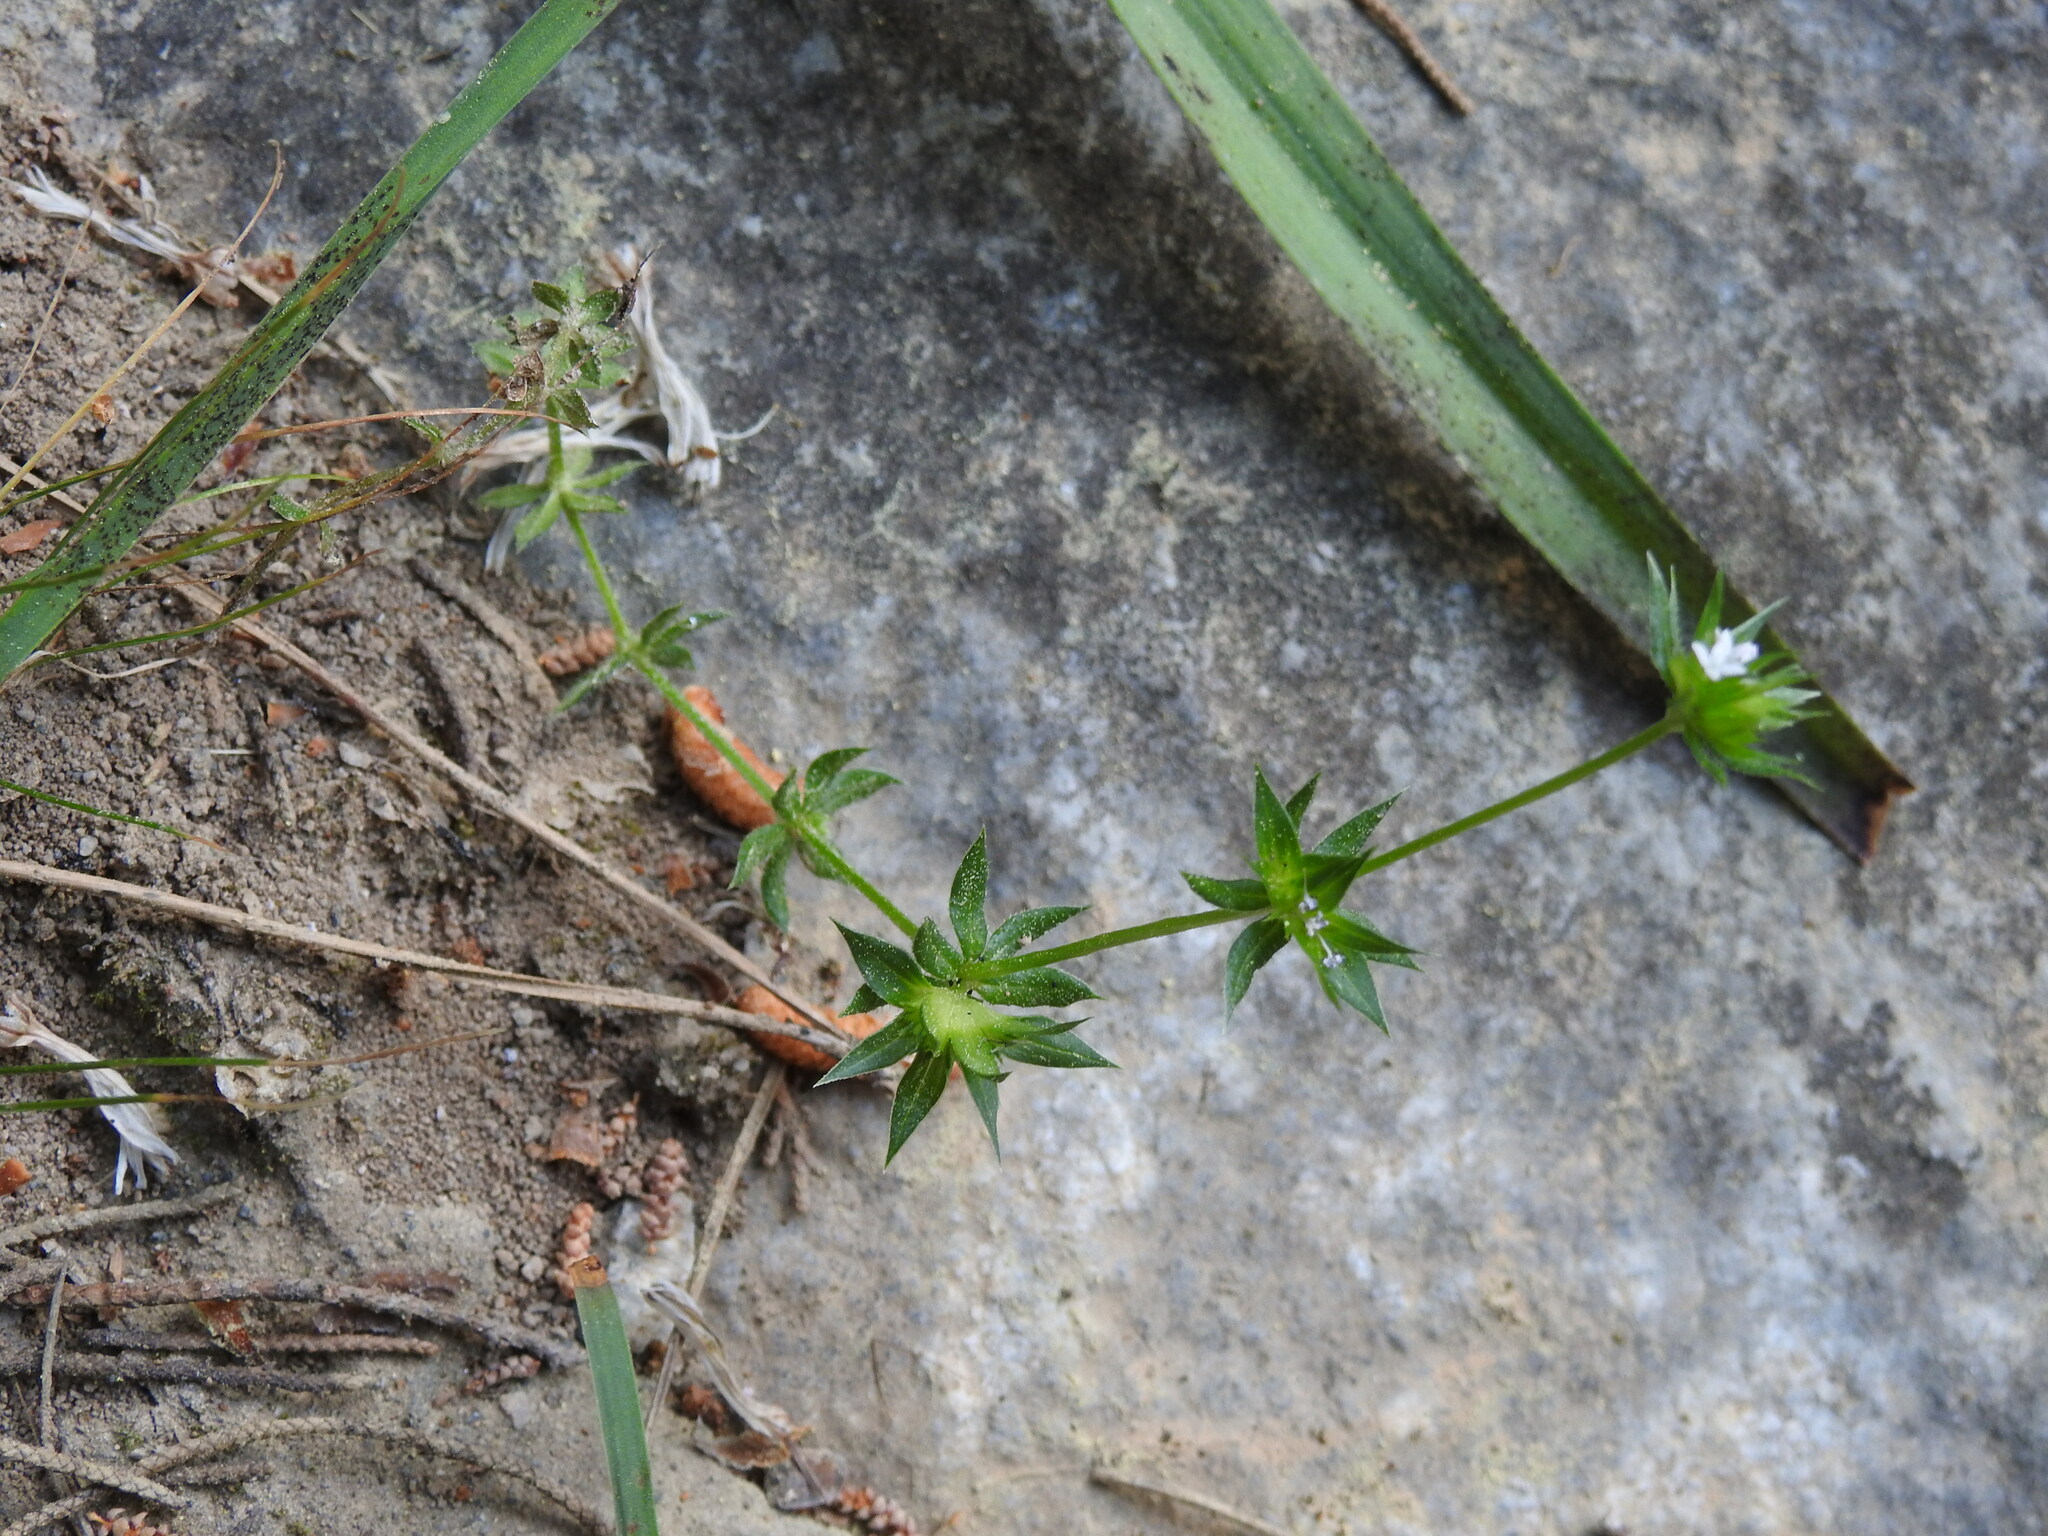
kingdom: Plantae
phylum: Tracheophyta
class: Magnoliopsida
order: Gentianales
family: Rubiaceae
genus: Sherardia
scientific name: Sherardia arvensis
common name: Field madder
